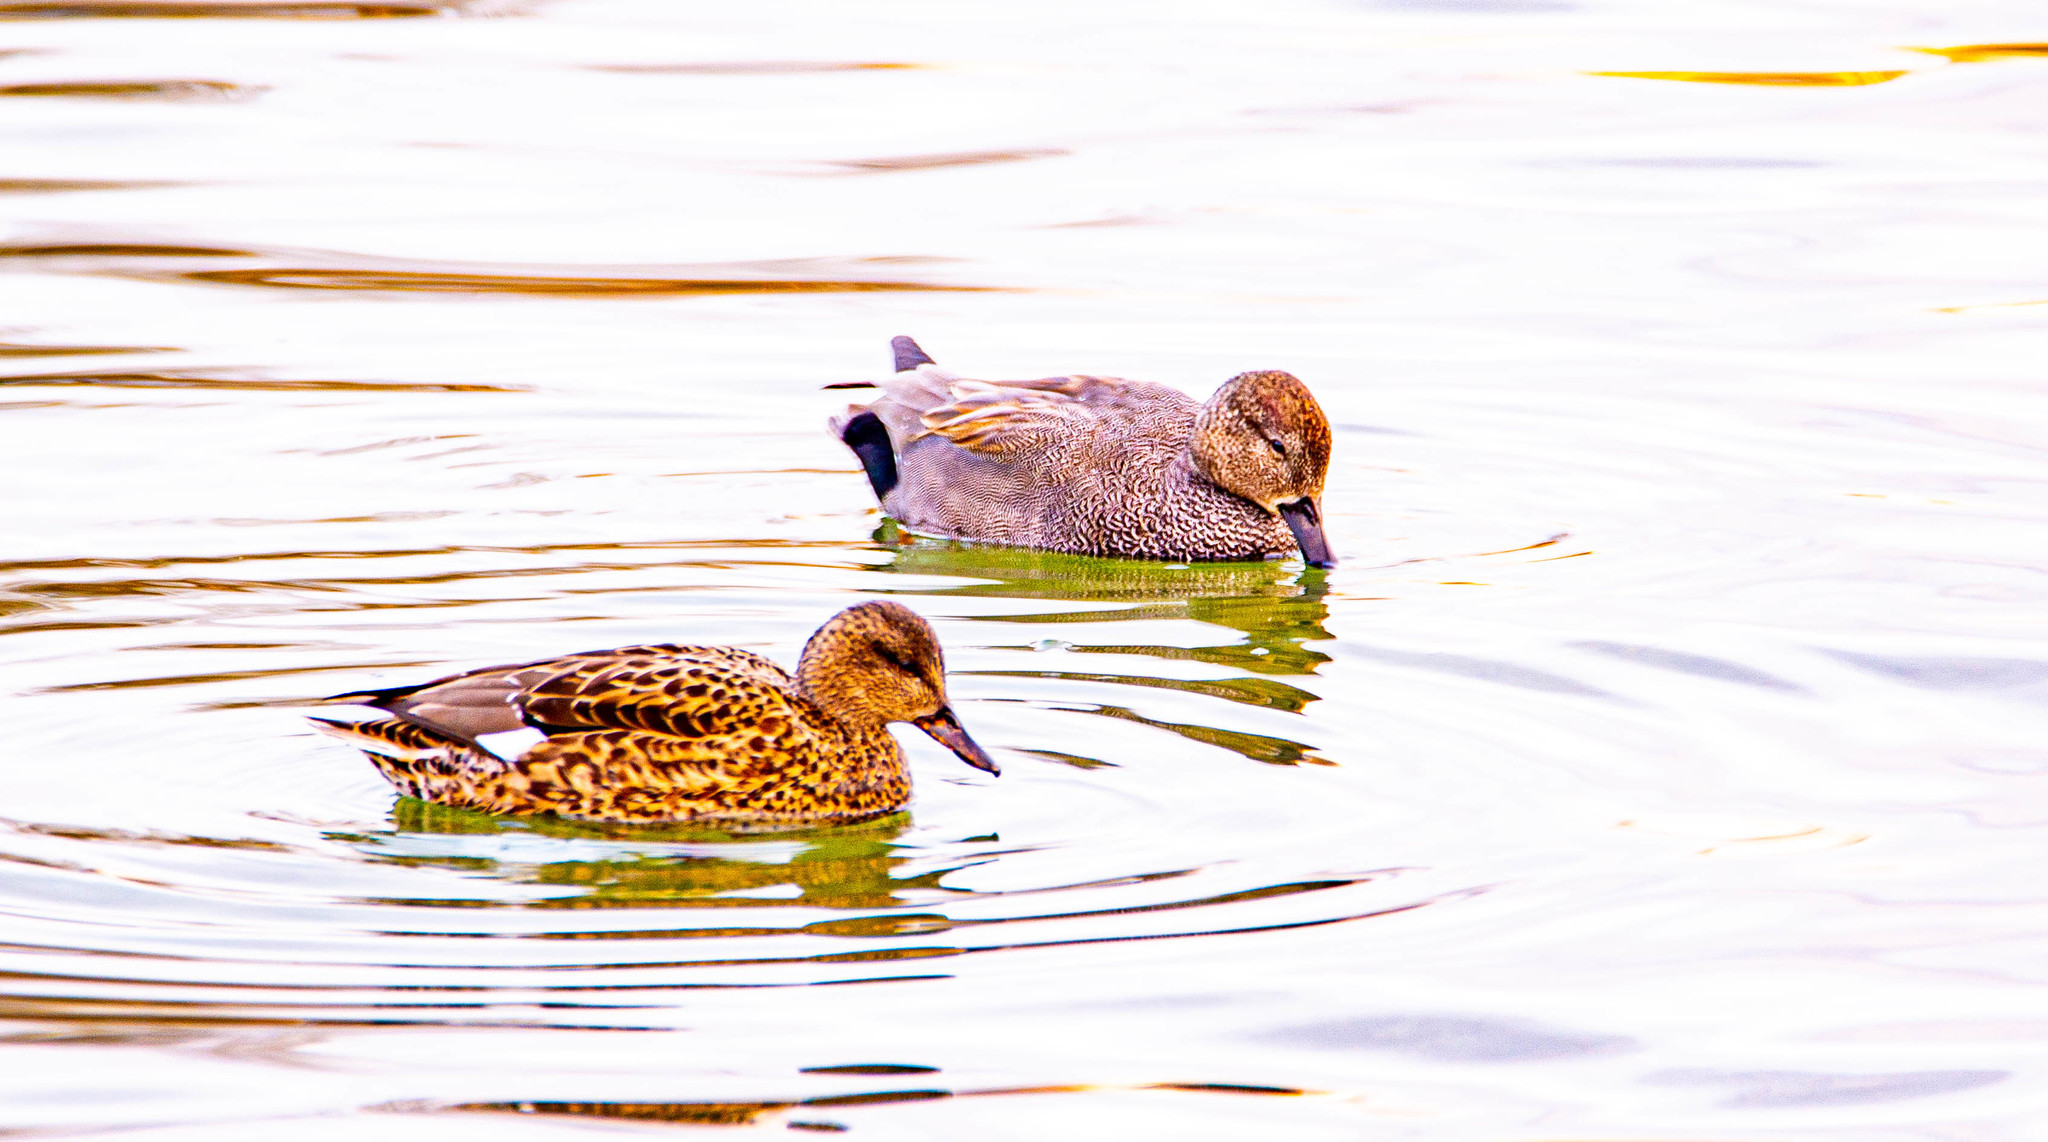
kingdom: Animalia
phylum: Chordata
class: Aves
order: Anseriformes
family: Anatidae
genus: Mareca
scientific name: Mareca strepera
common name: Gadwall
